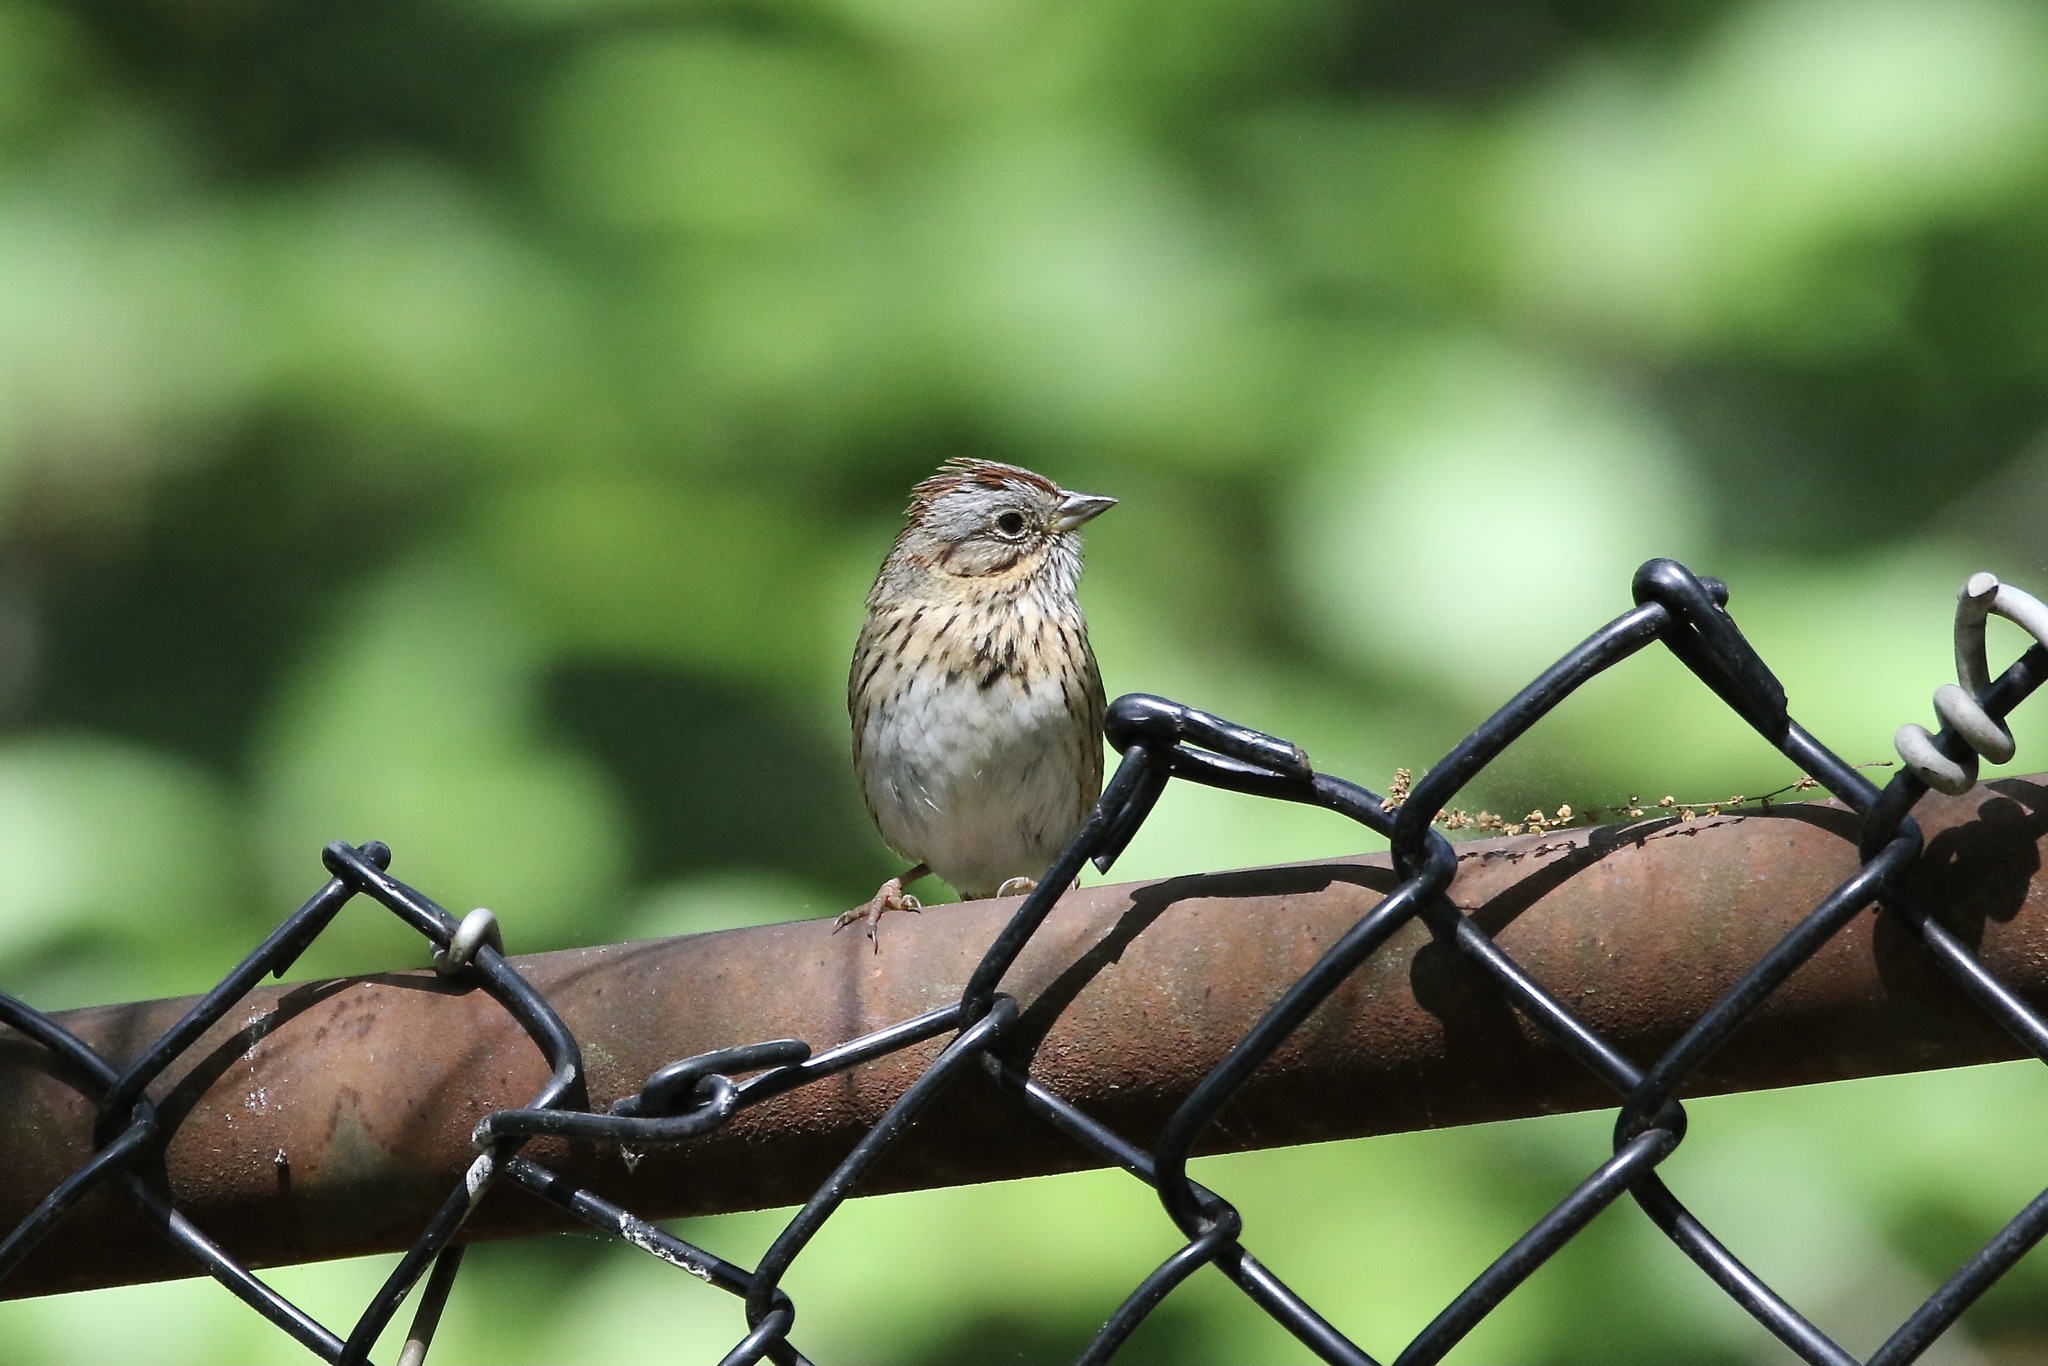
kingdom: Animalia
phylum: Chordata
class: Aves
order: Passeriformes
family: Passerellidae
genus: Melospiza
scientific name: Melospiza lincolnii
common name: Lincoln's sparrow
